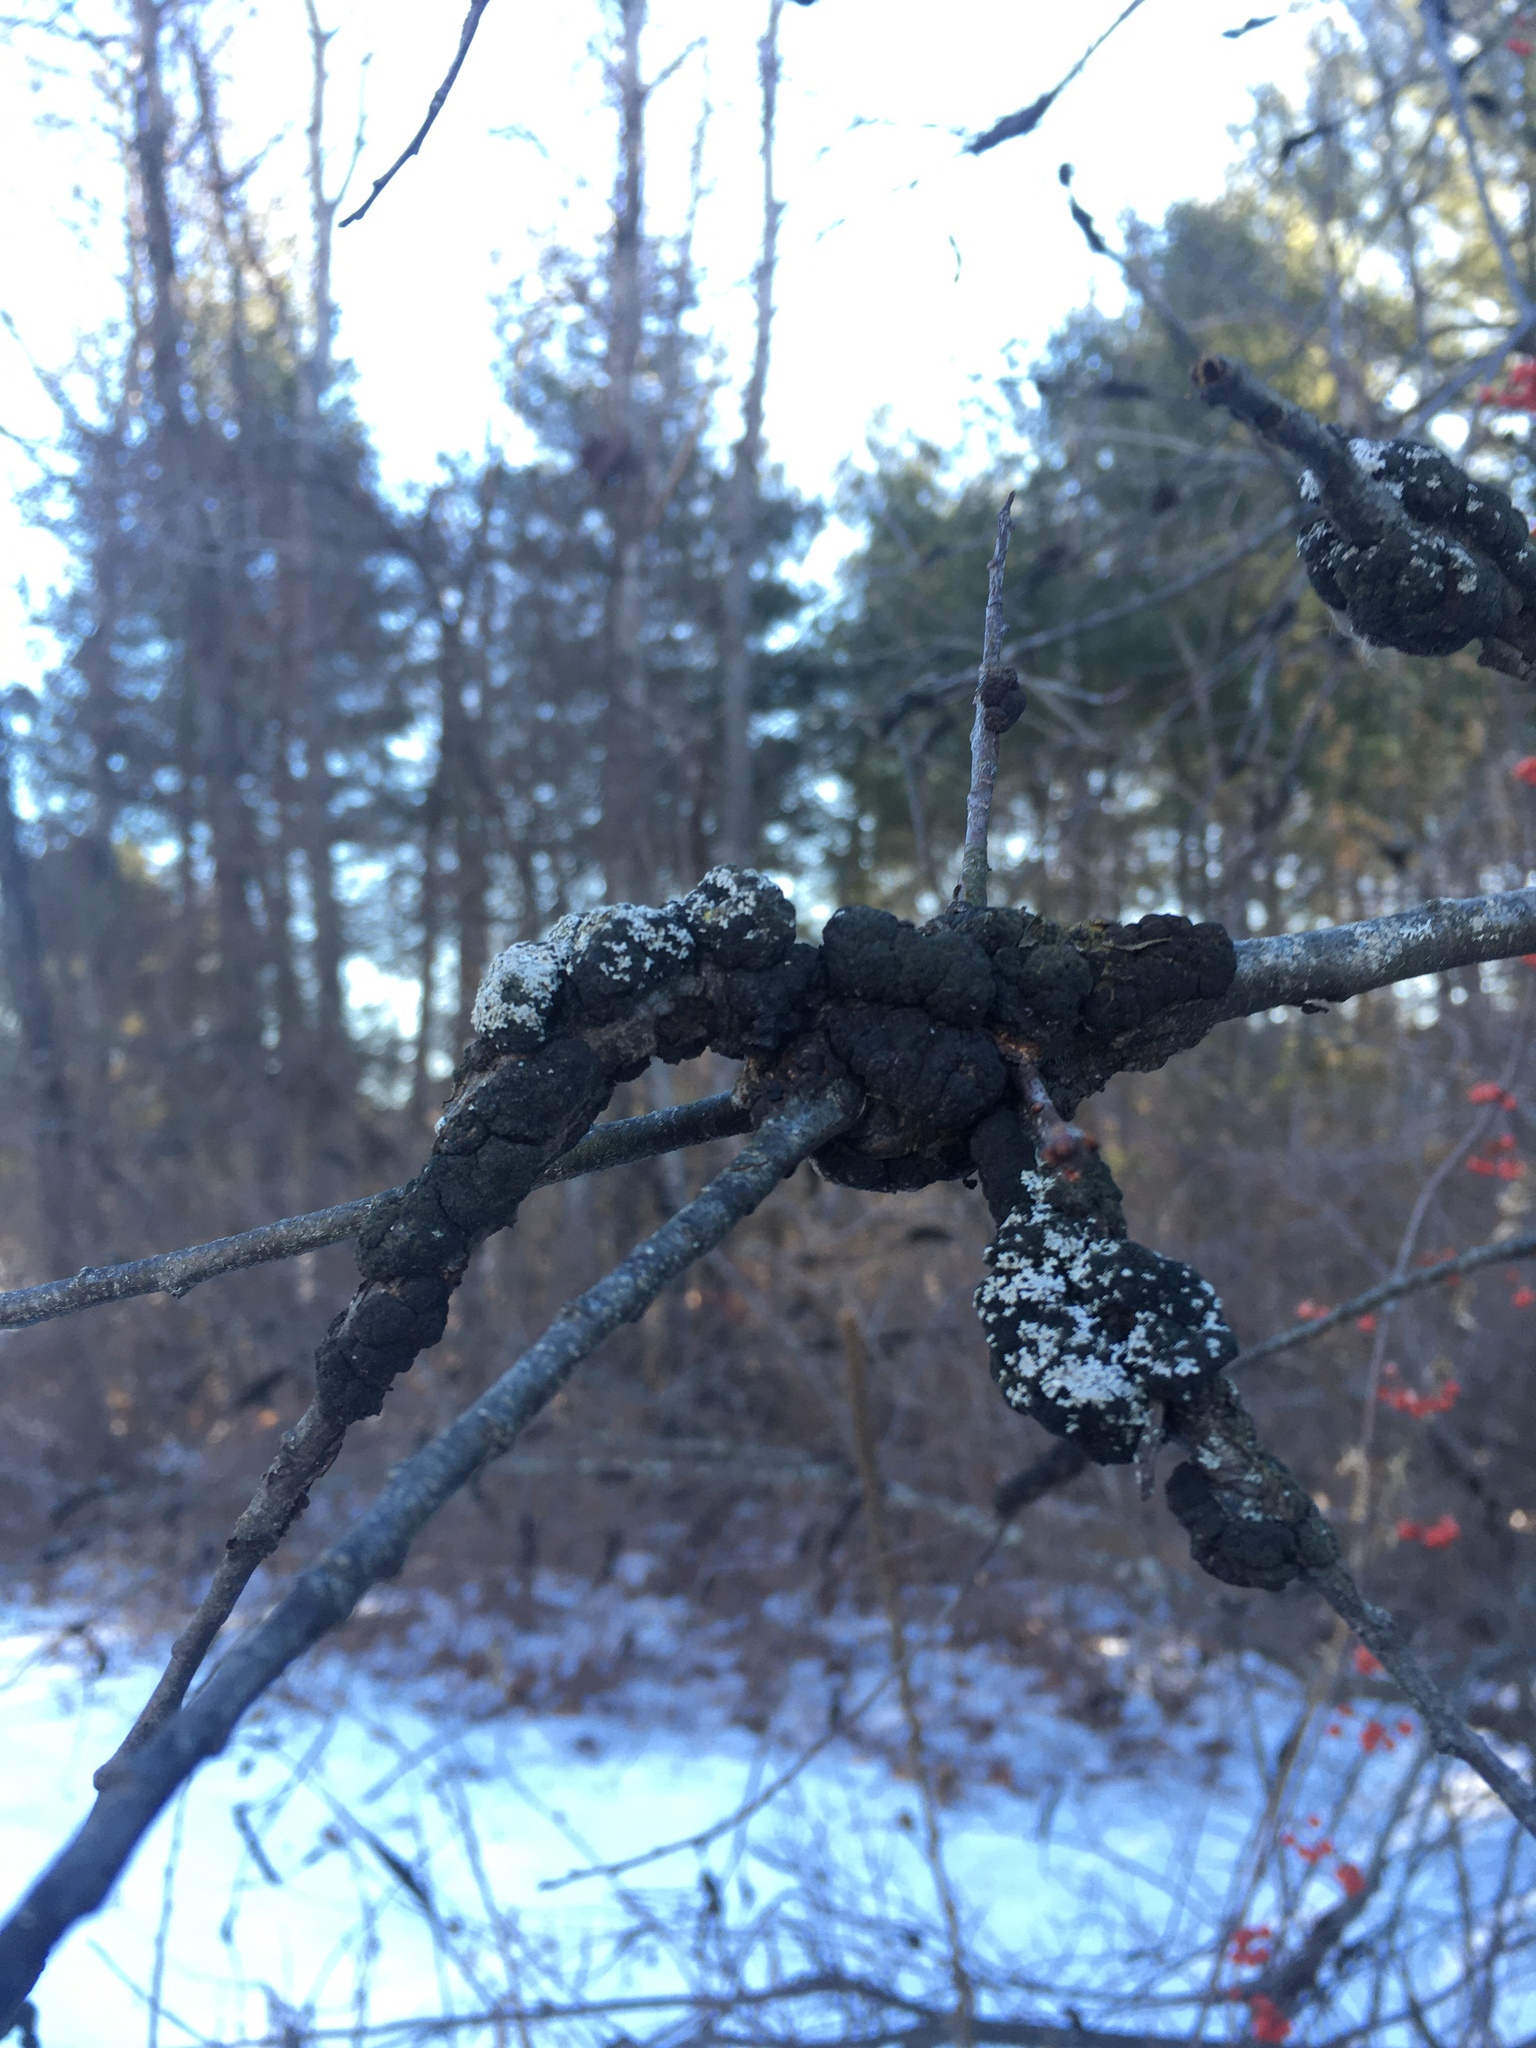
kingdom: Fungi
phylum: Ascomycota
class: Dothideomycetes
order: Venturiales
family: Venturiaceae
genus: Apiosporina
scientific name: Apiosporina morbosa
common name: Black knot
